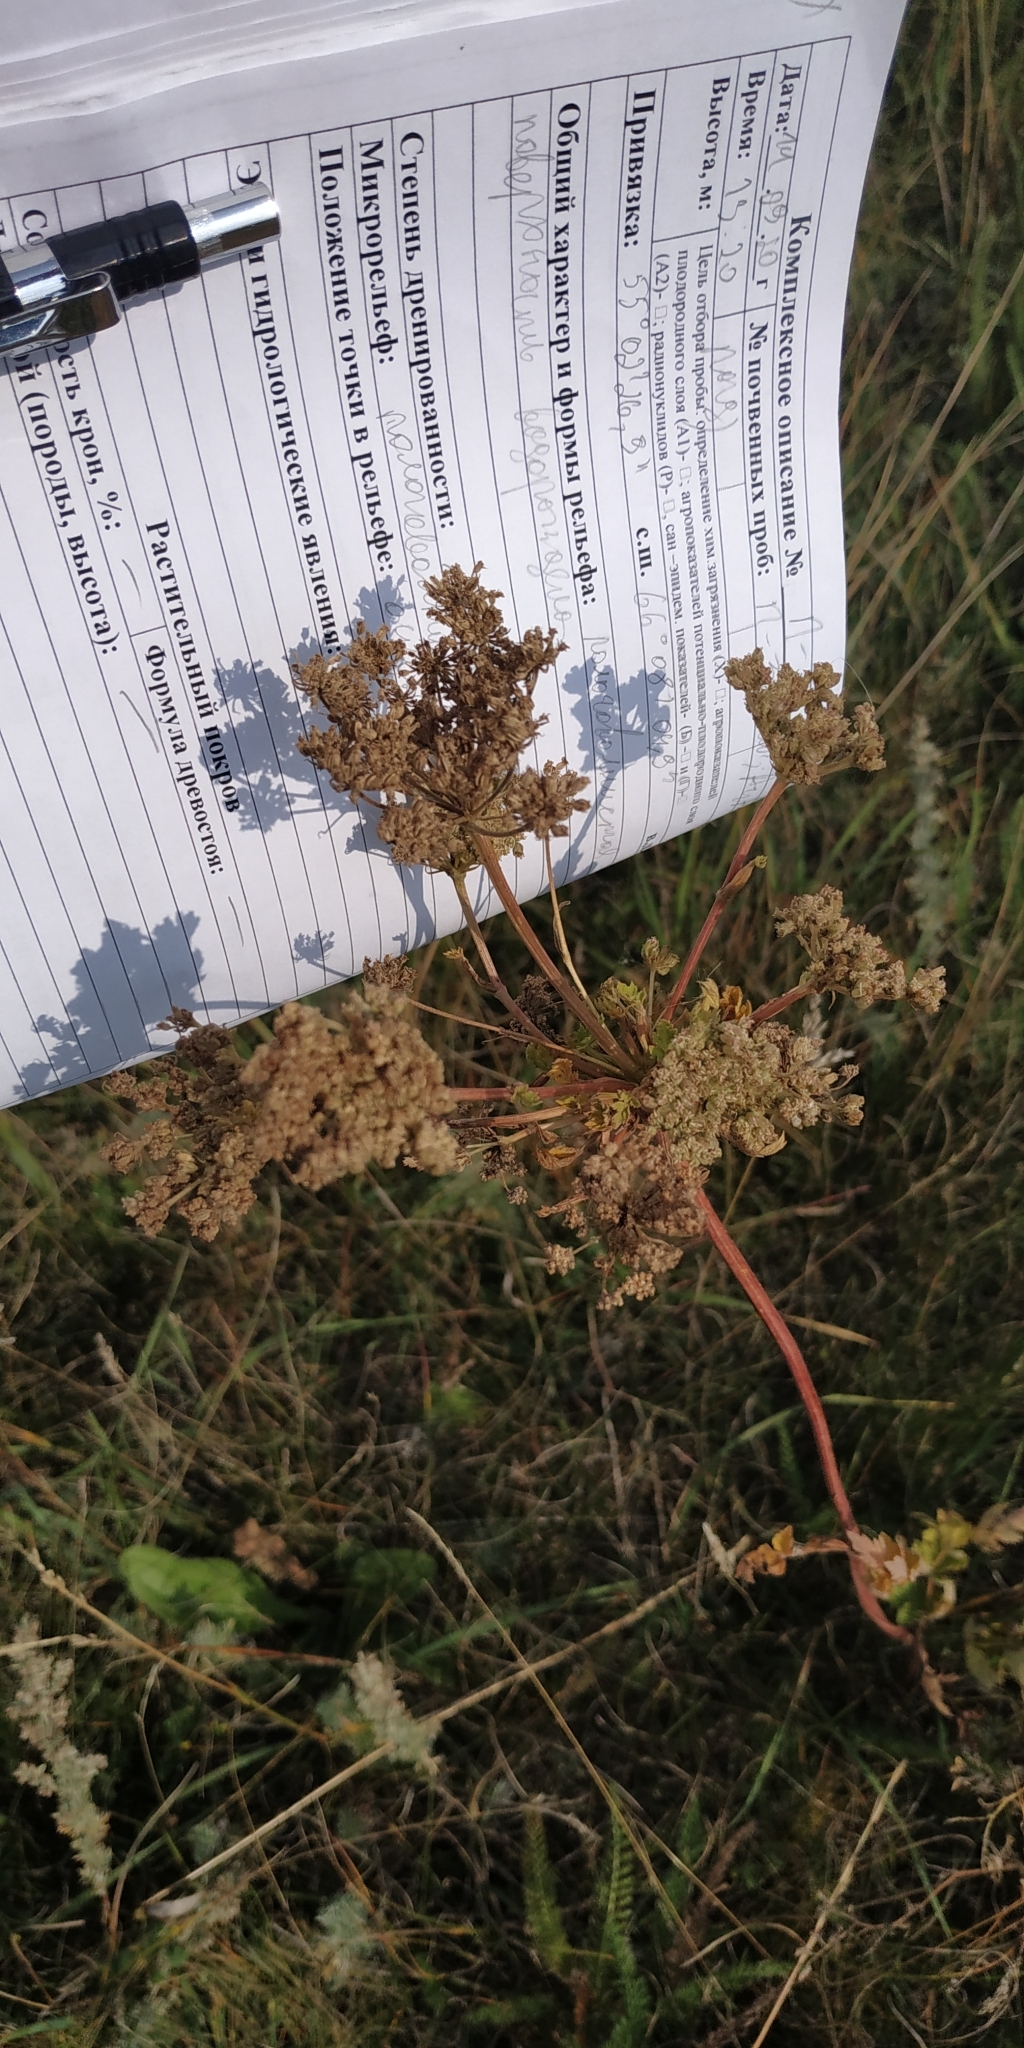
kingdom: Plantae
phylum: Tracheophyta
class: Magnoliopsida
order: Apiales
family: Apiaceae
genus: Seseli
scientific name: Seseli libanotis
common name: Mooncarrot
